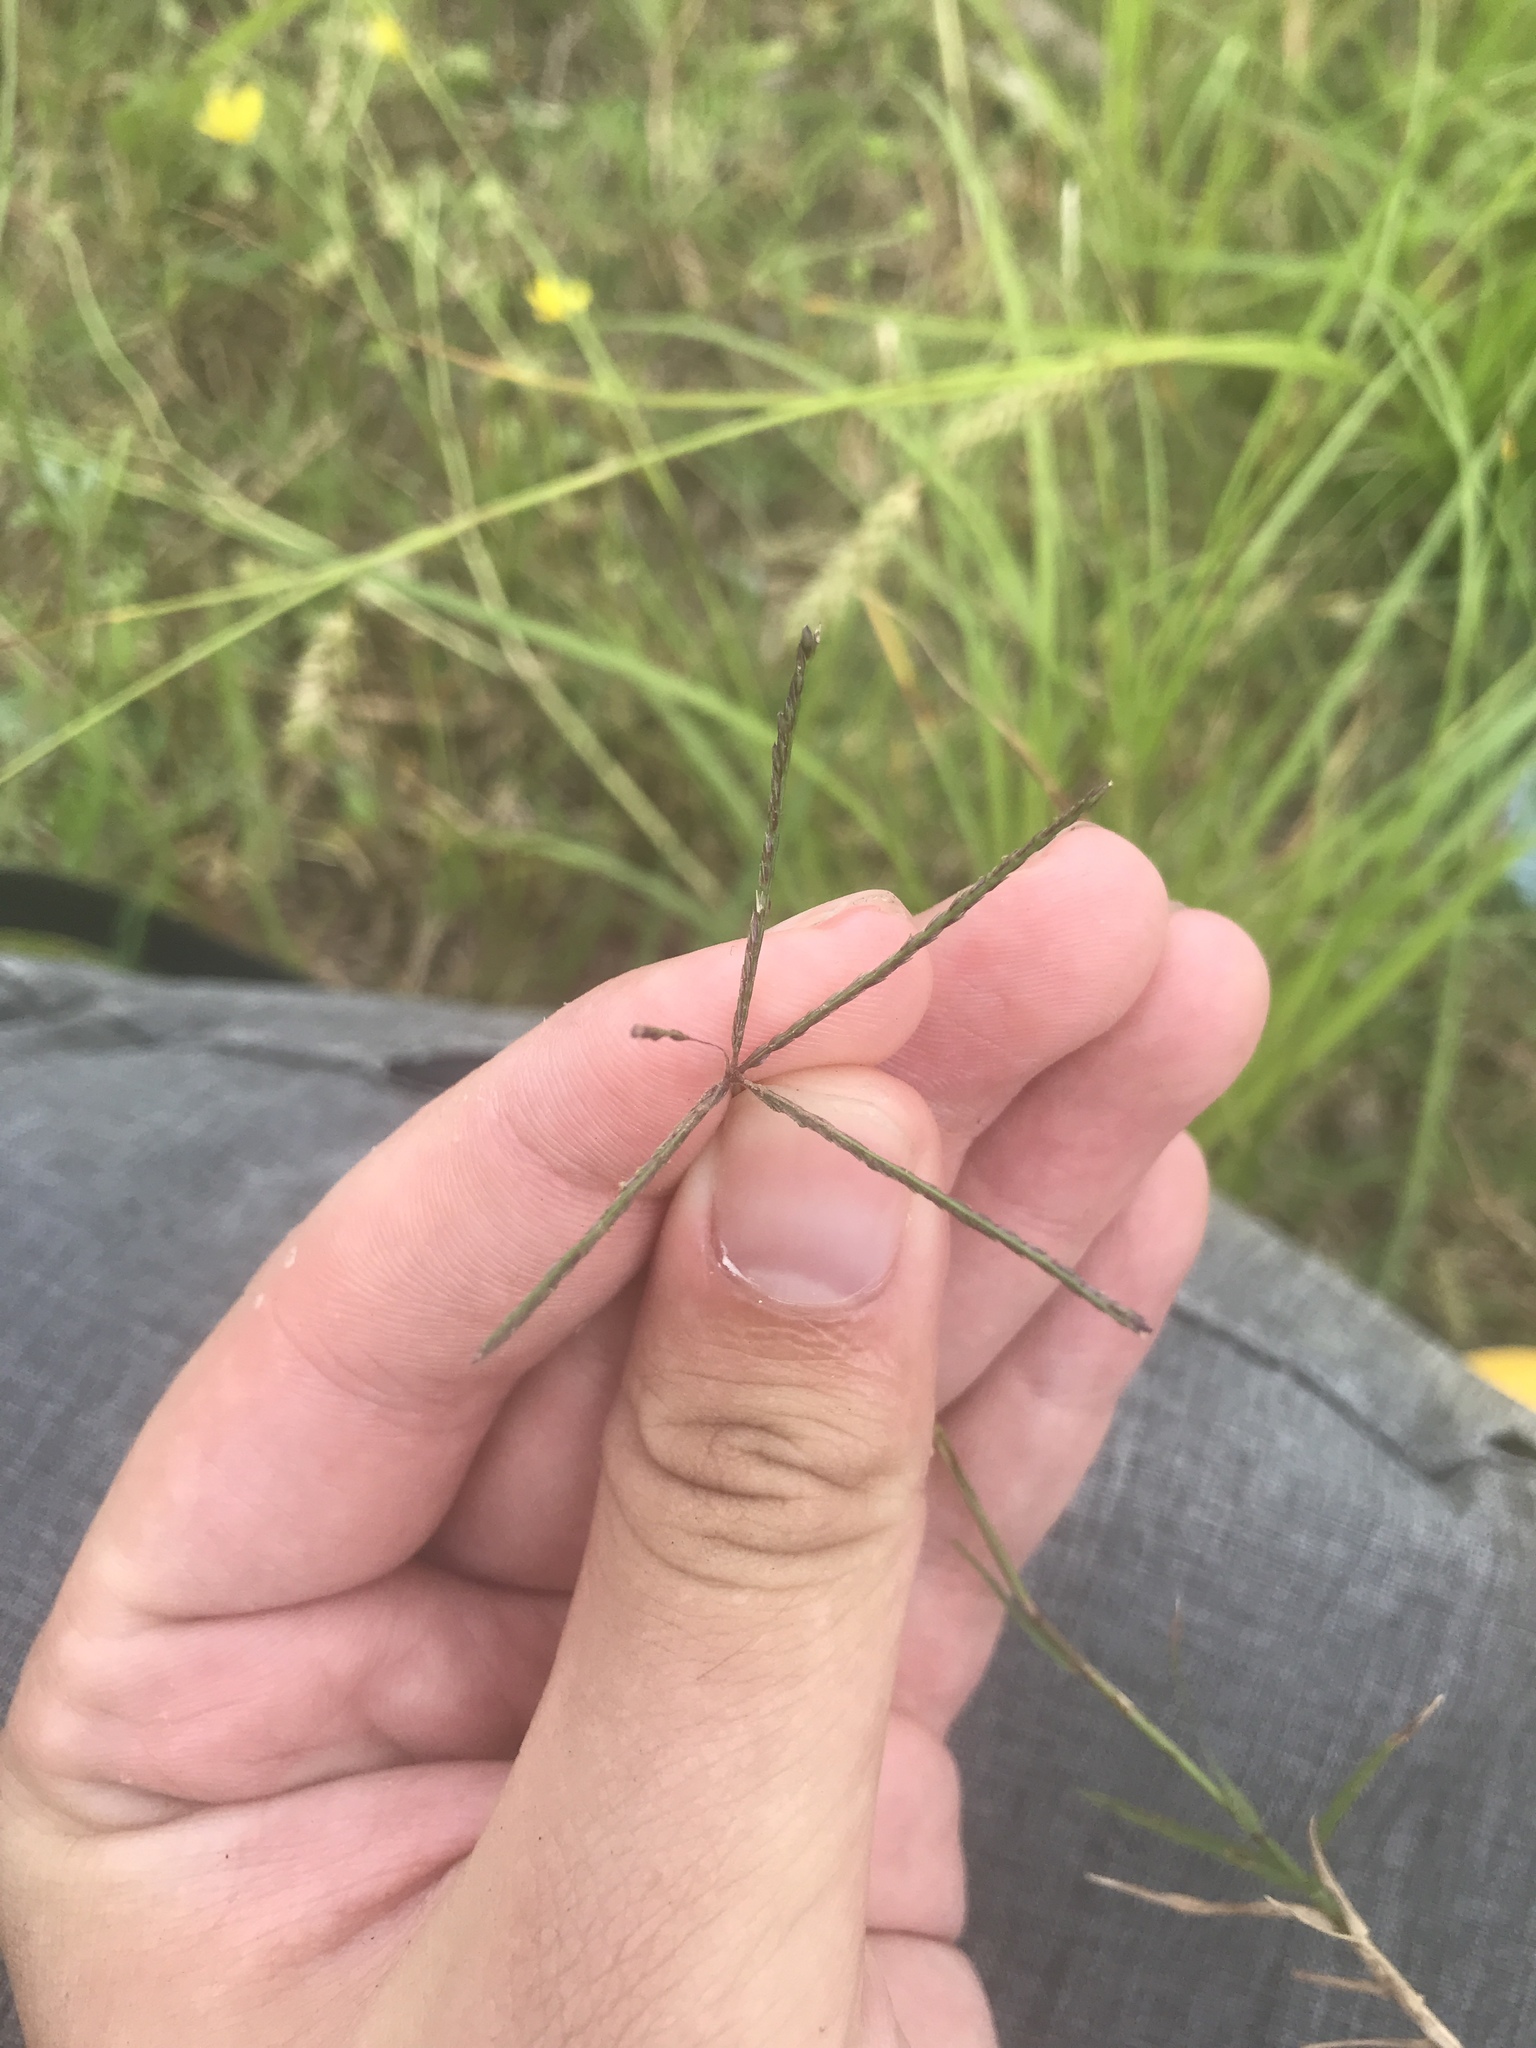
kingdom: Plantae
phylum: Tracheophyta
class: Liliopsida
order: Poales
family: Poaceae
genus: Cynodon
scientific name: Cynodon dactylon
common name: Bermuda grass
